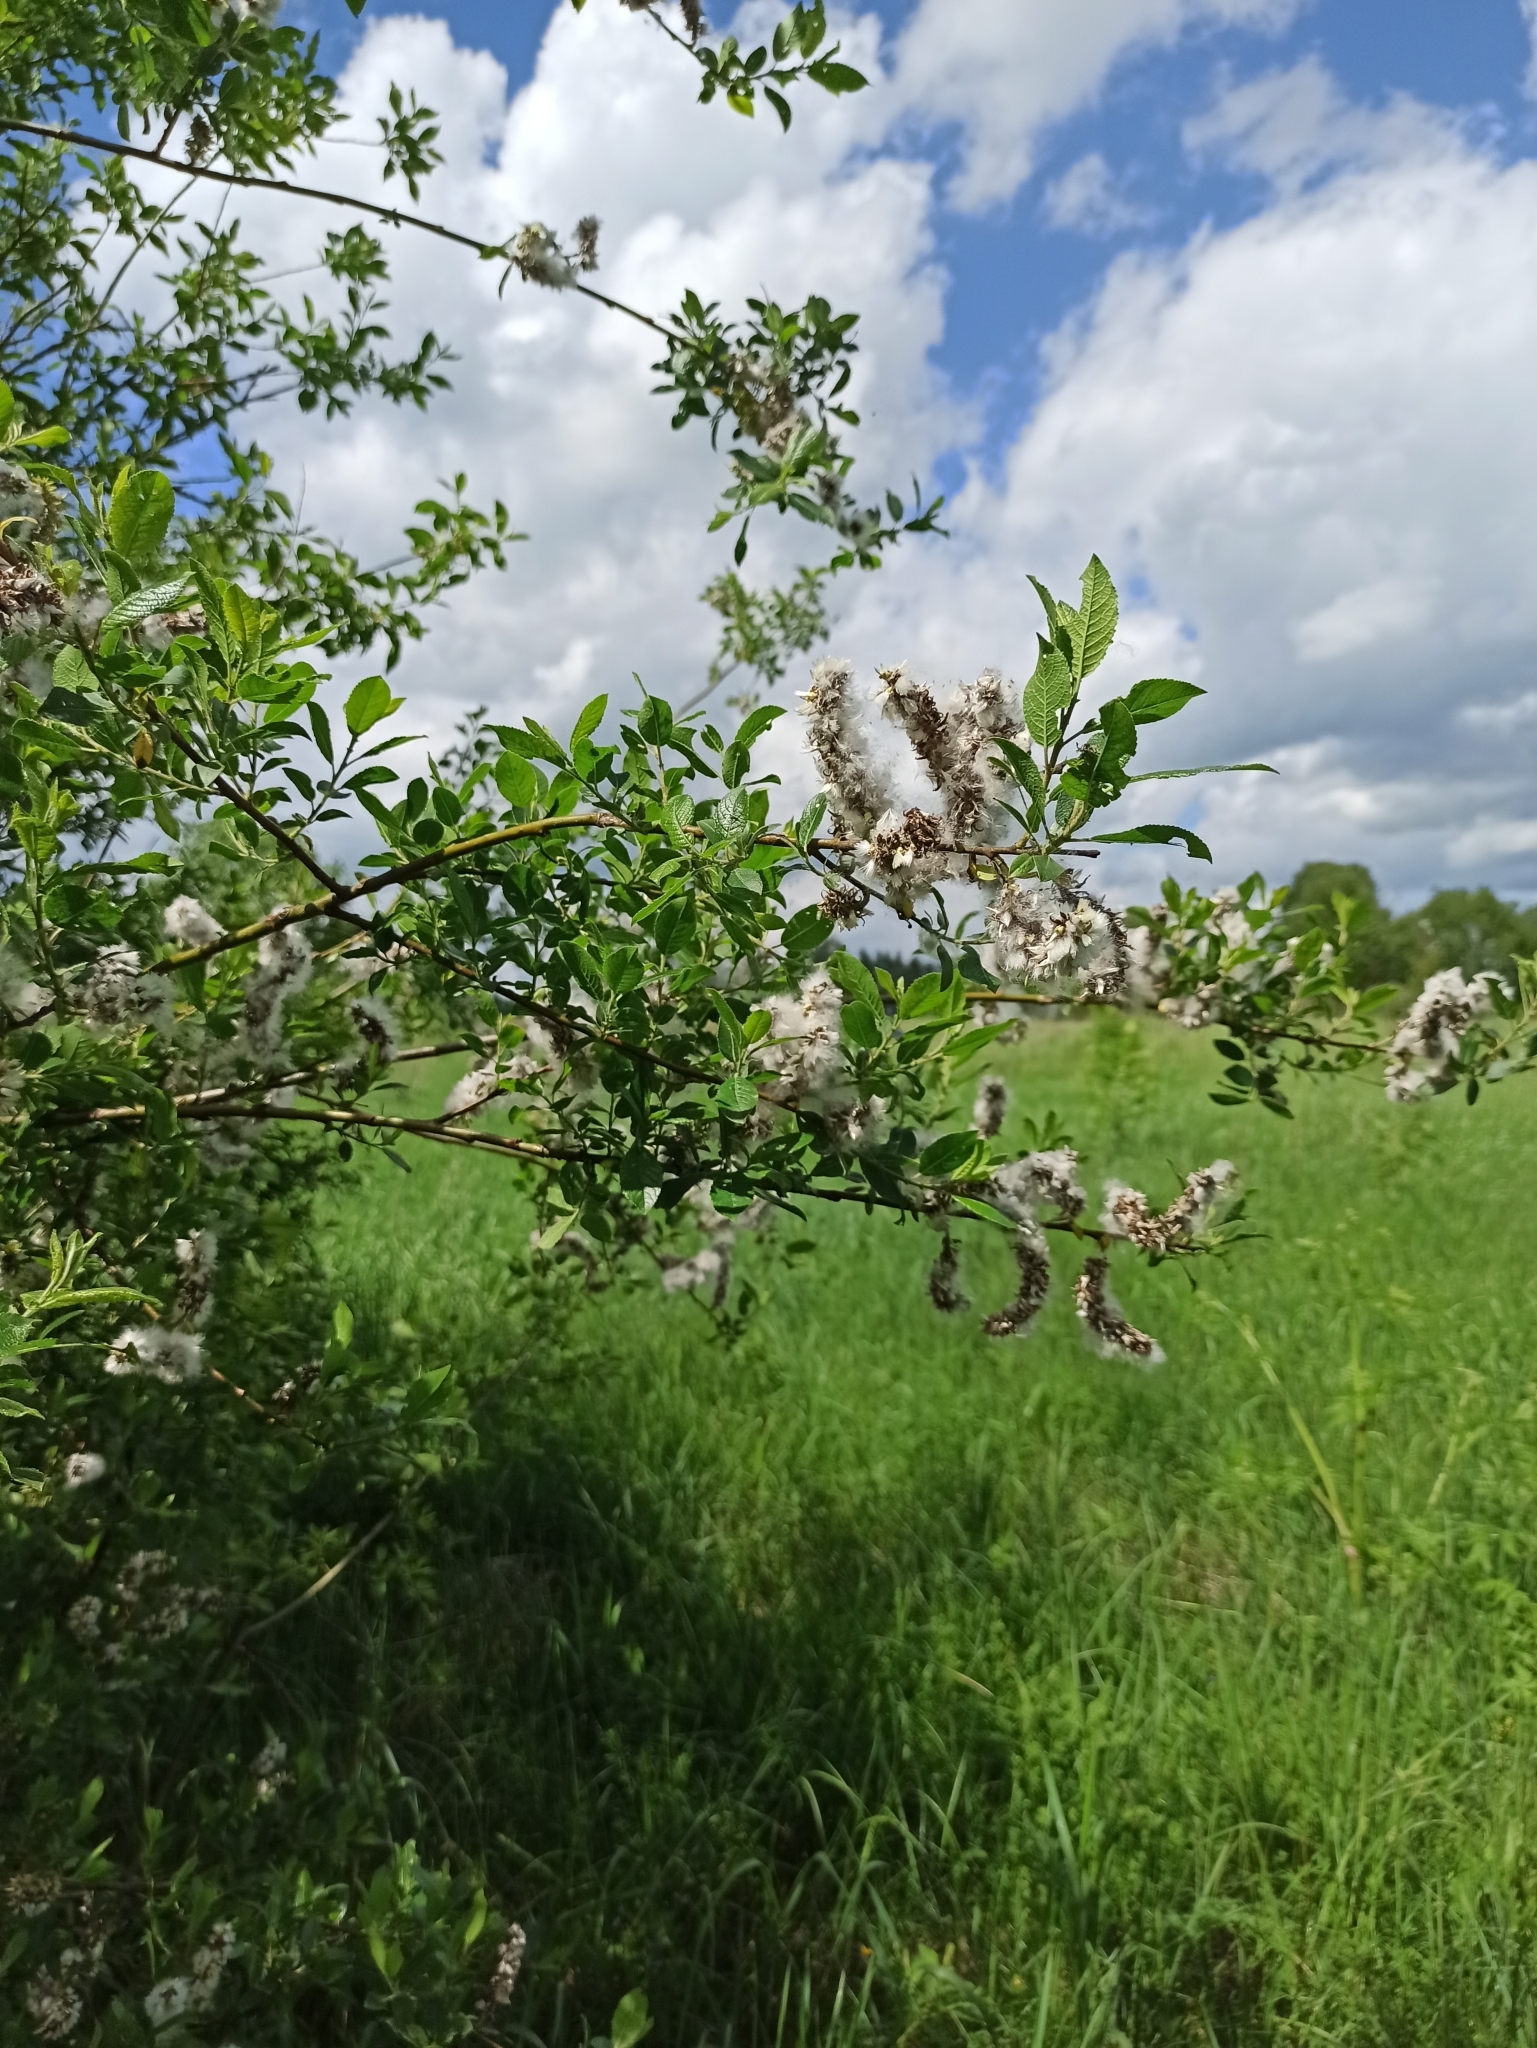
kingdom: Plantae
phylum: Tracheophyta
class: Magnoliopsida
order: Malpighiales
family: Salicaceae
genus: Salix
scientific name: Salix myrsinifolia
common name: Dark-leaved willow
